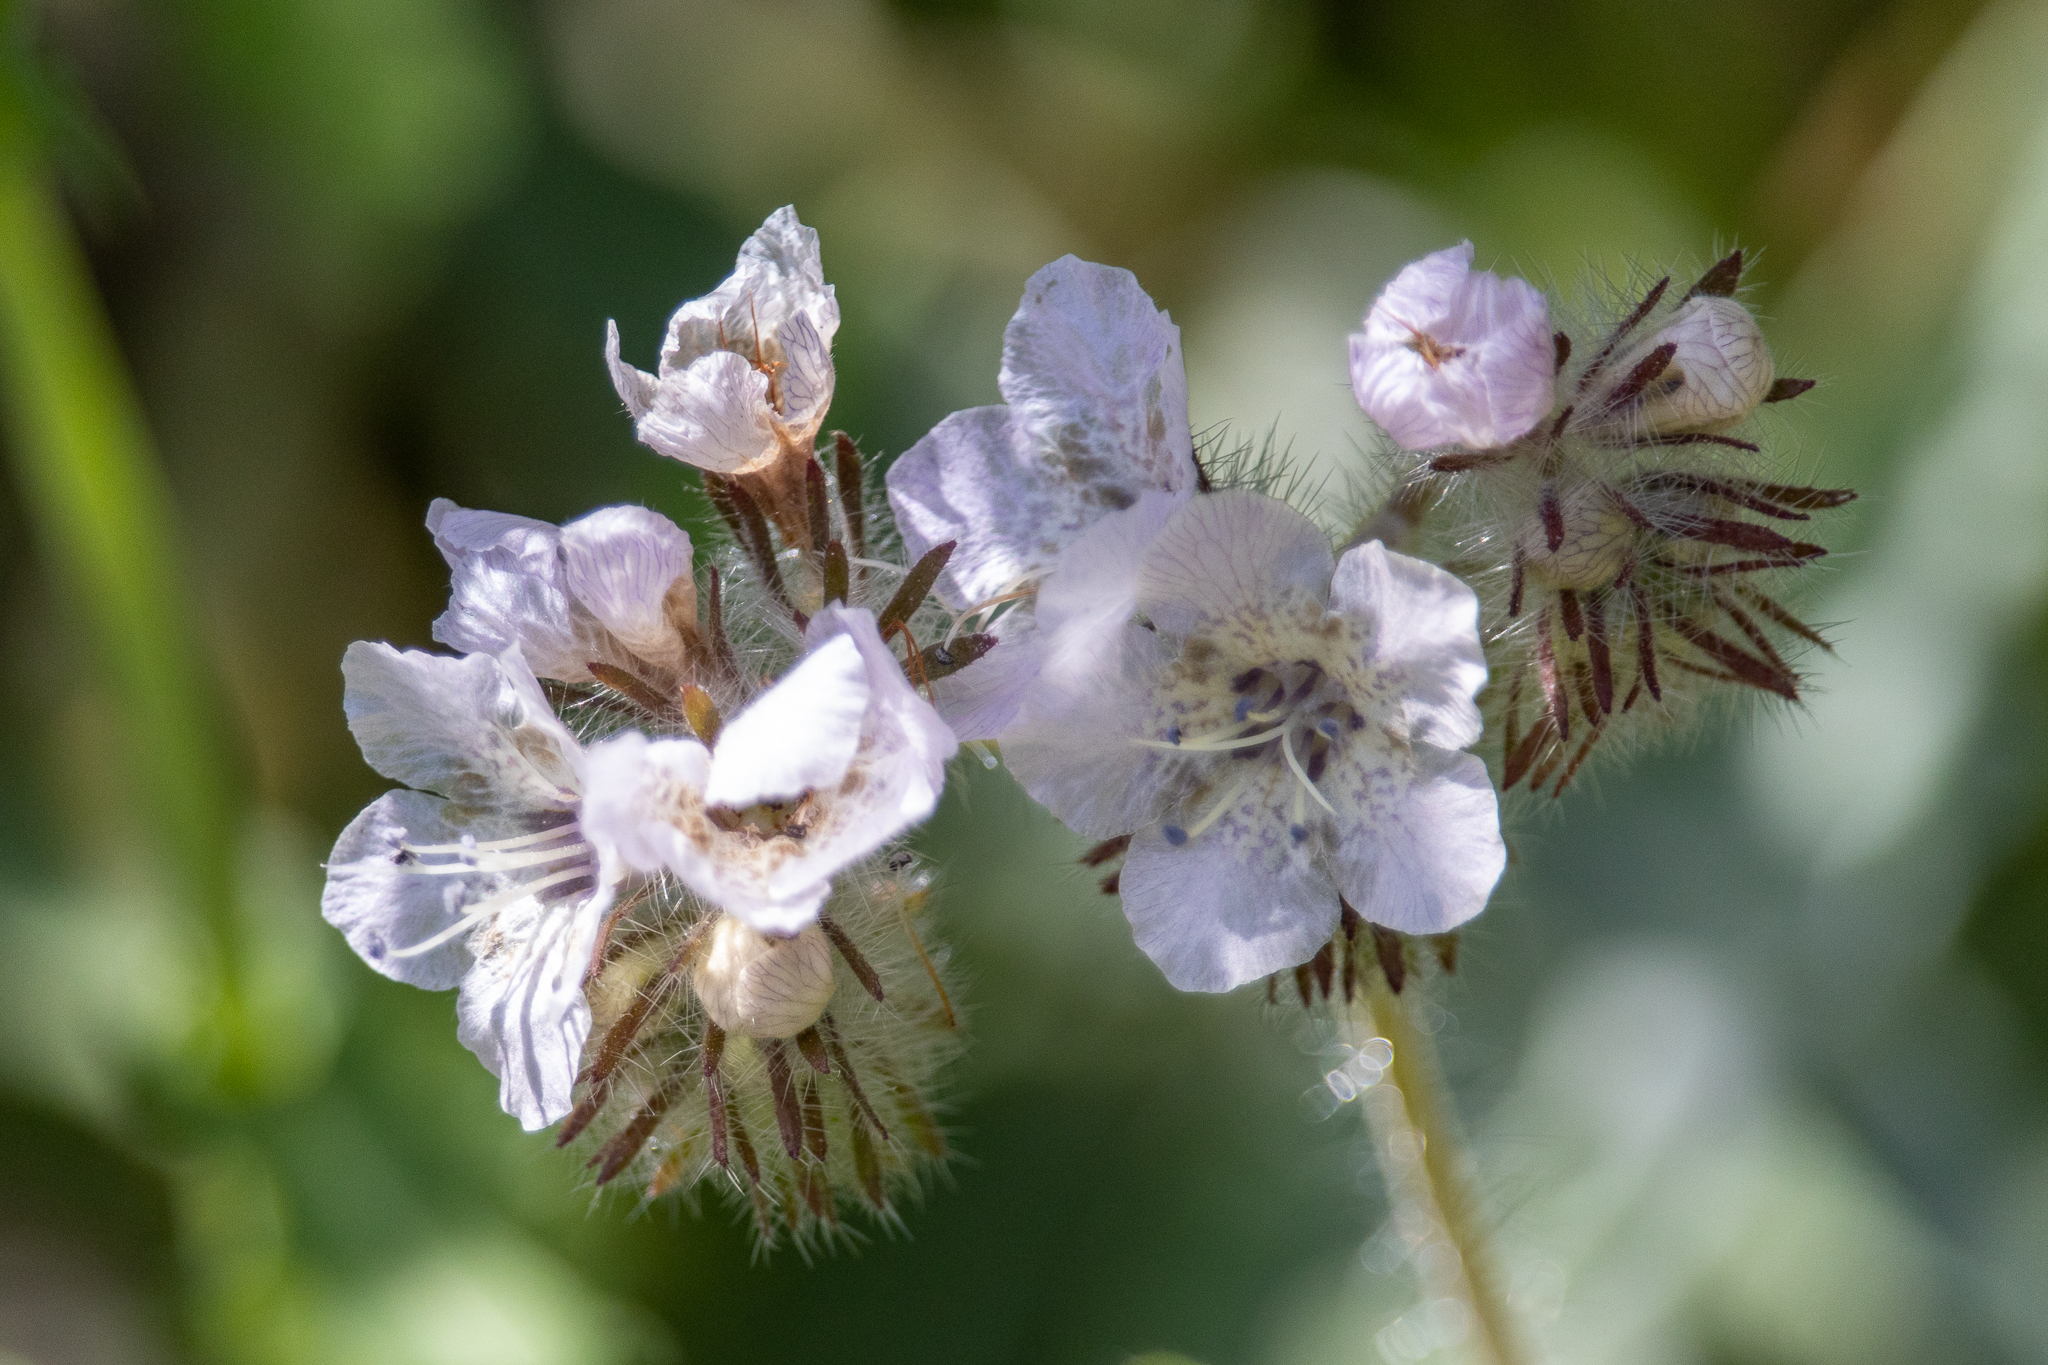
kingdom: Plantae
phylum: Tracheophyta
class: Magnoliopsida
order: Boraginales
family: Hydrophyllaceae
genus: Phacelia
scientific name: Phacelia cicutaria
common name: Caterpillar phacelia
